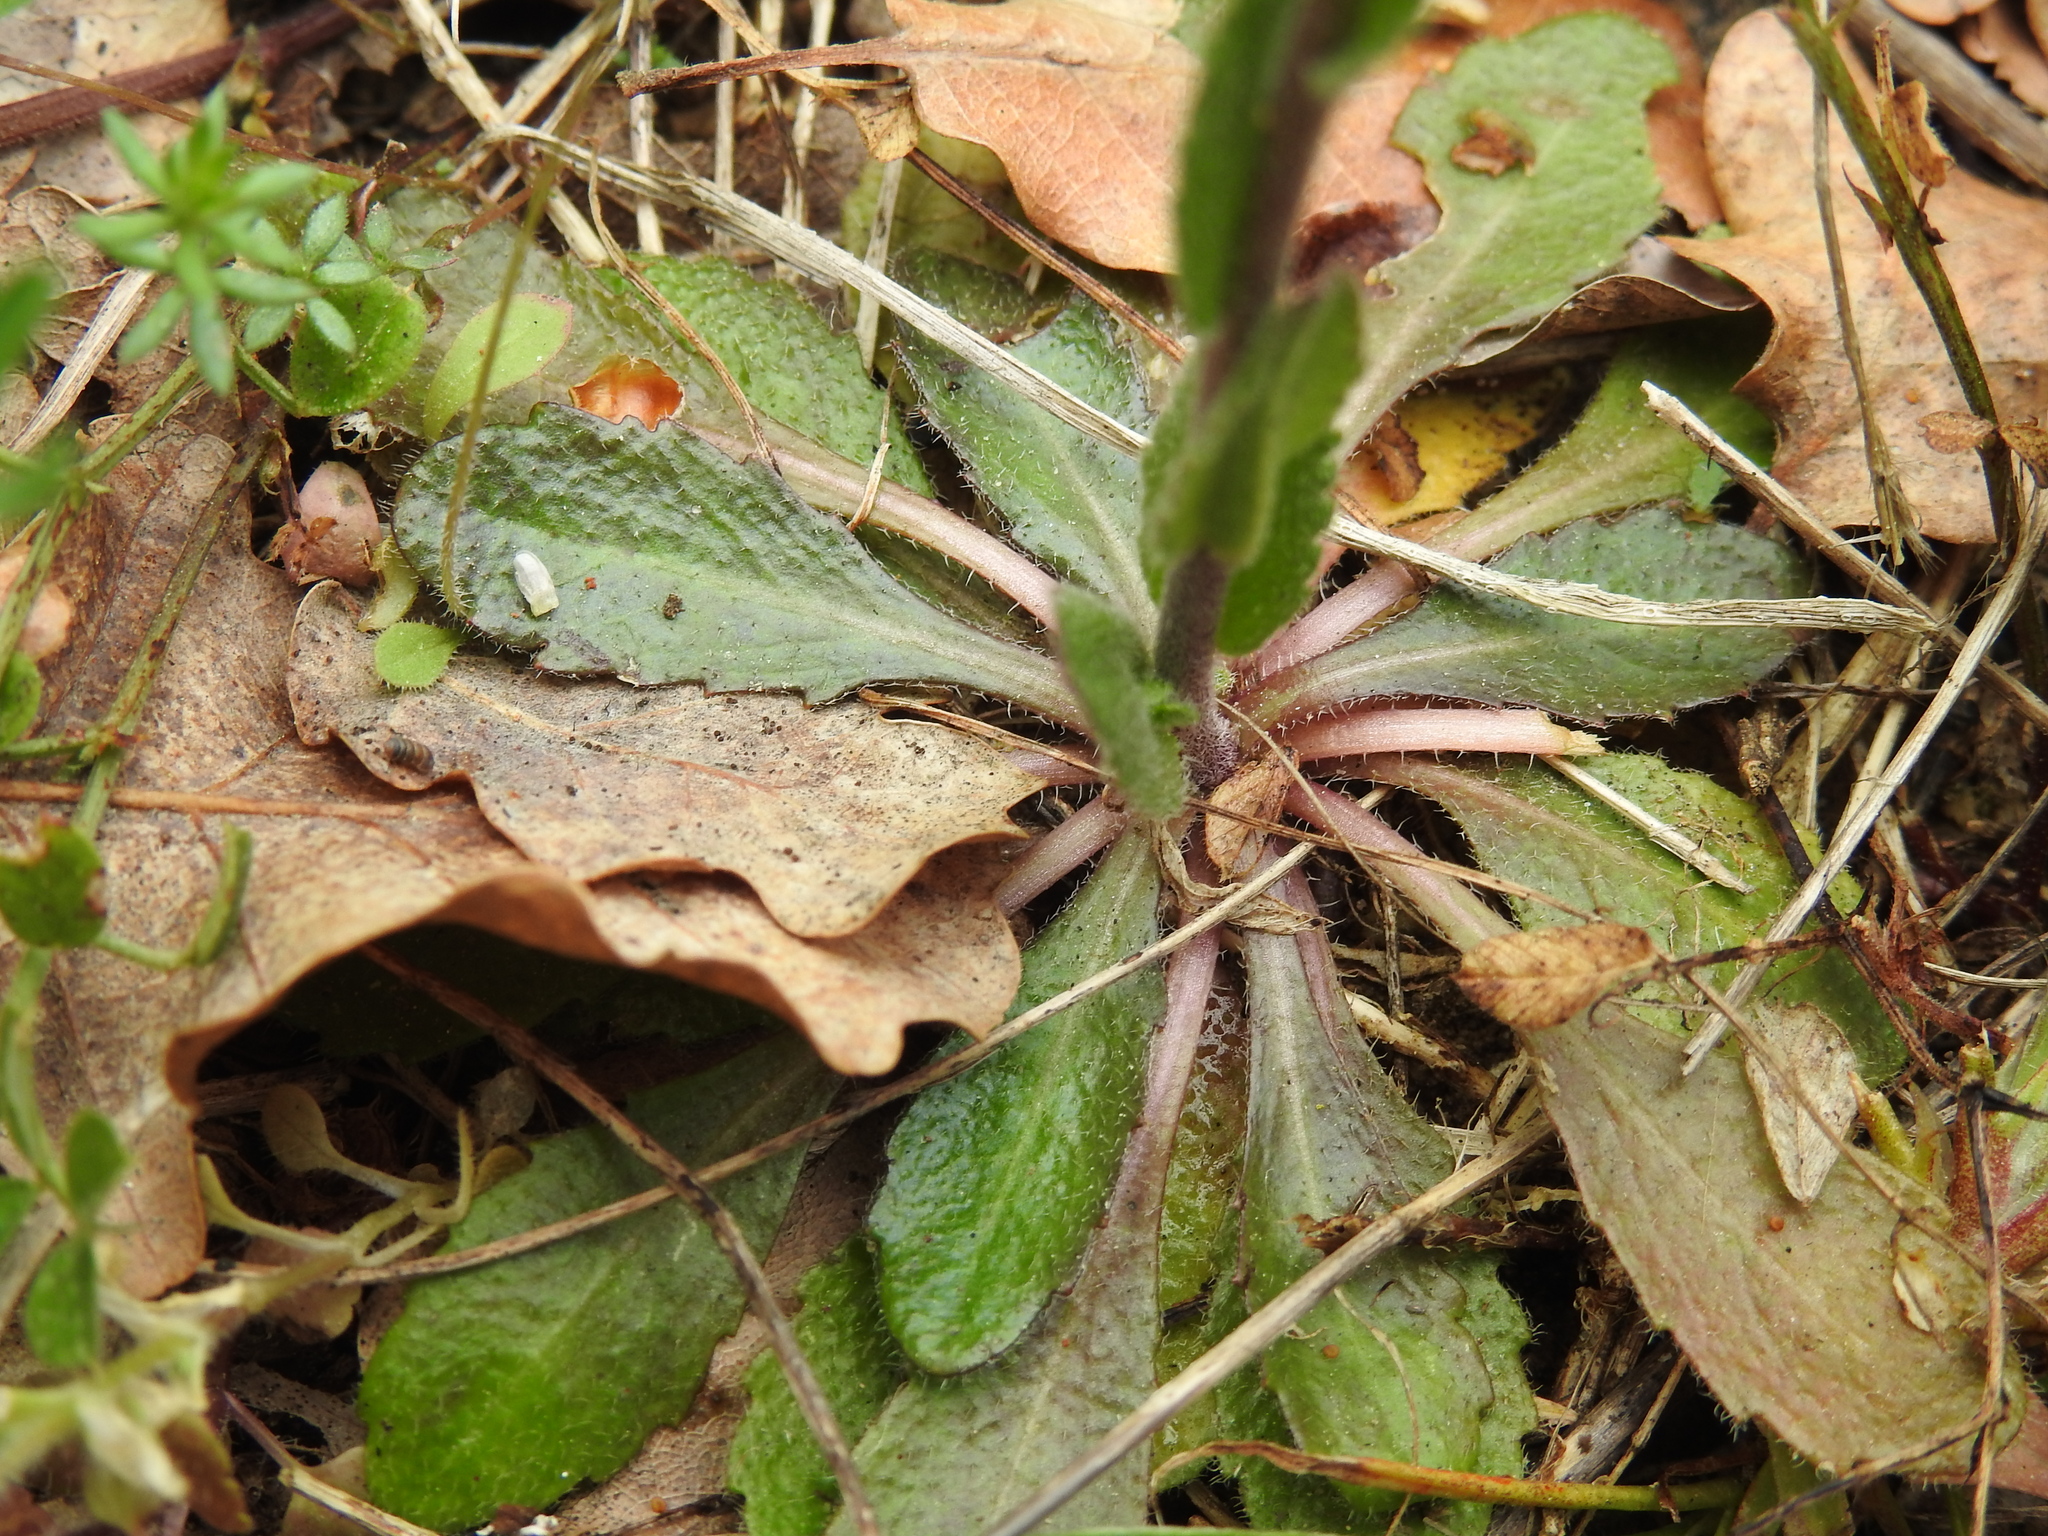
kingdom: Plantae
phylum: Tracheophyta
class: Magnoliopsida
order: Brassicales
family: Brassicaceae
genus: Arabis
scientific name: Arabis hirsuta
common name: Hairy rock-cress
